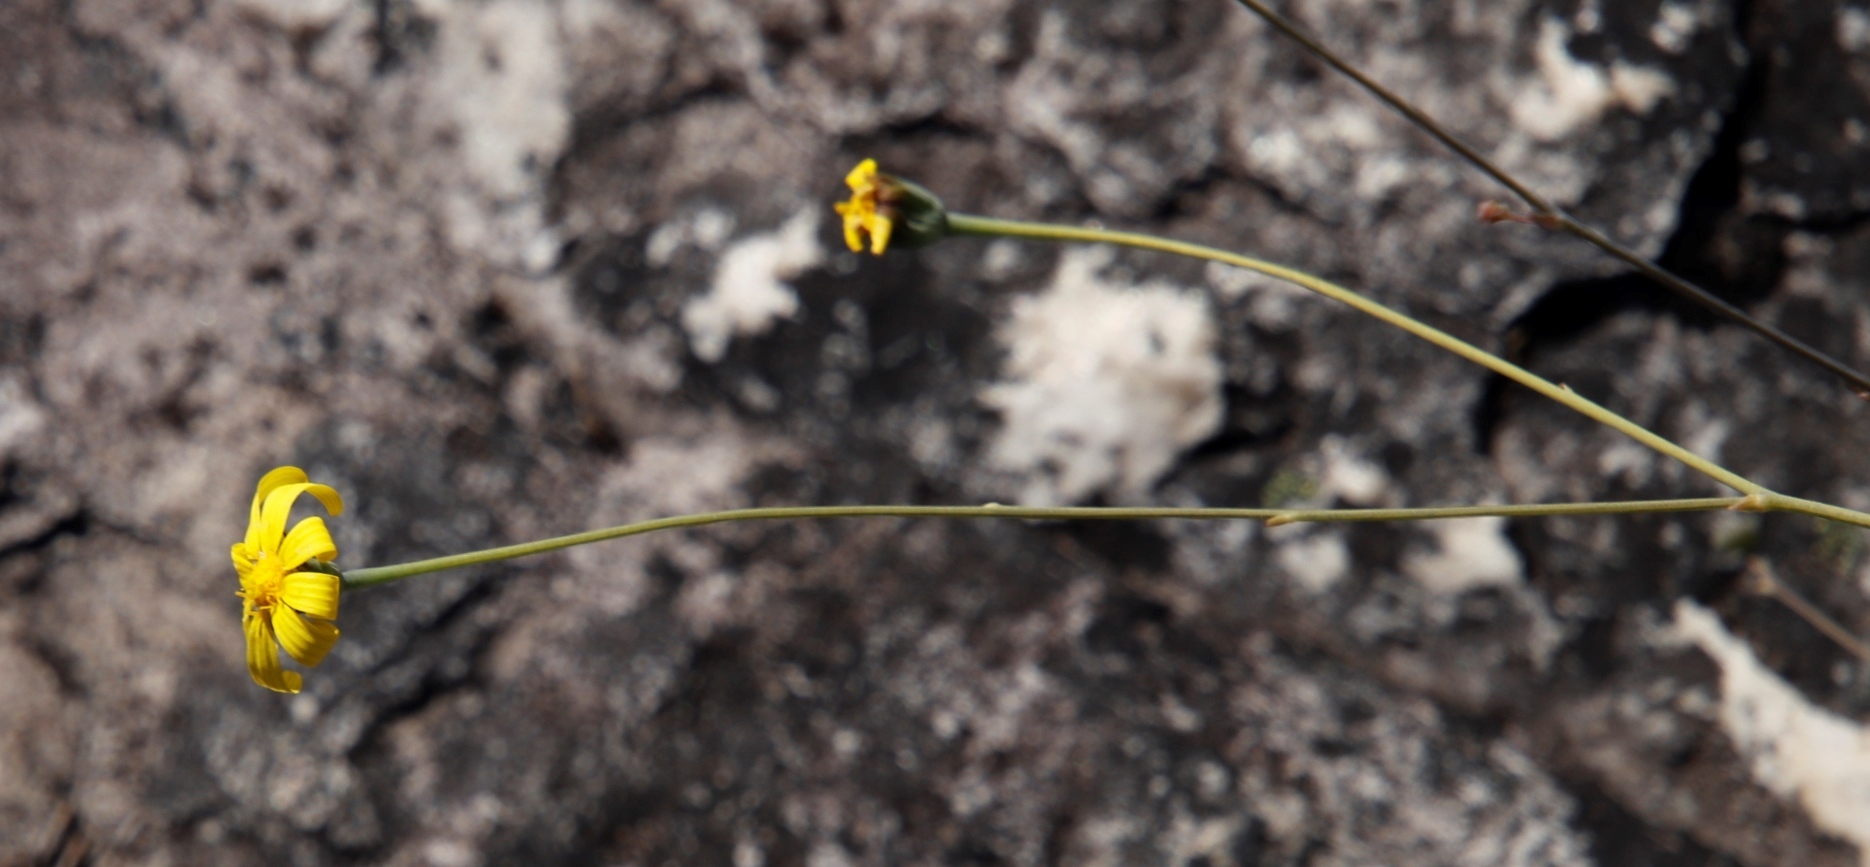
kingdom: Plantae
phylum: Tracheophyta
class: Magnoliopsida
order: Asterales
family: Asteraceae
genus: Othonna
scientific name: Othonna multicaulis
